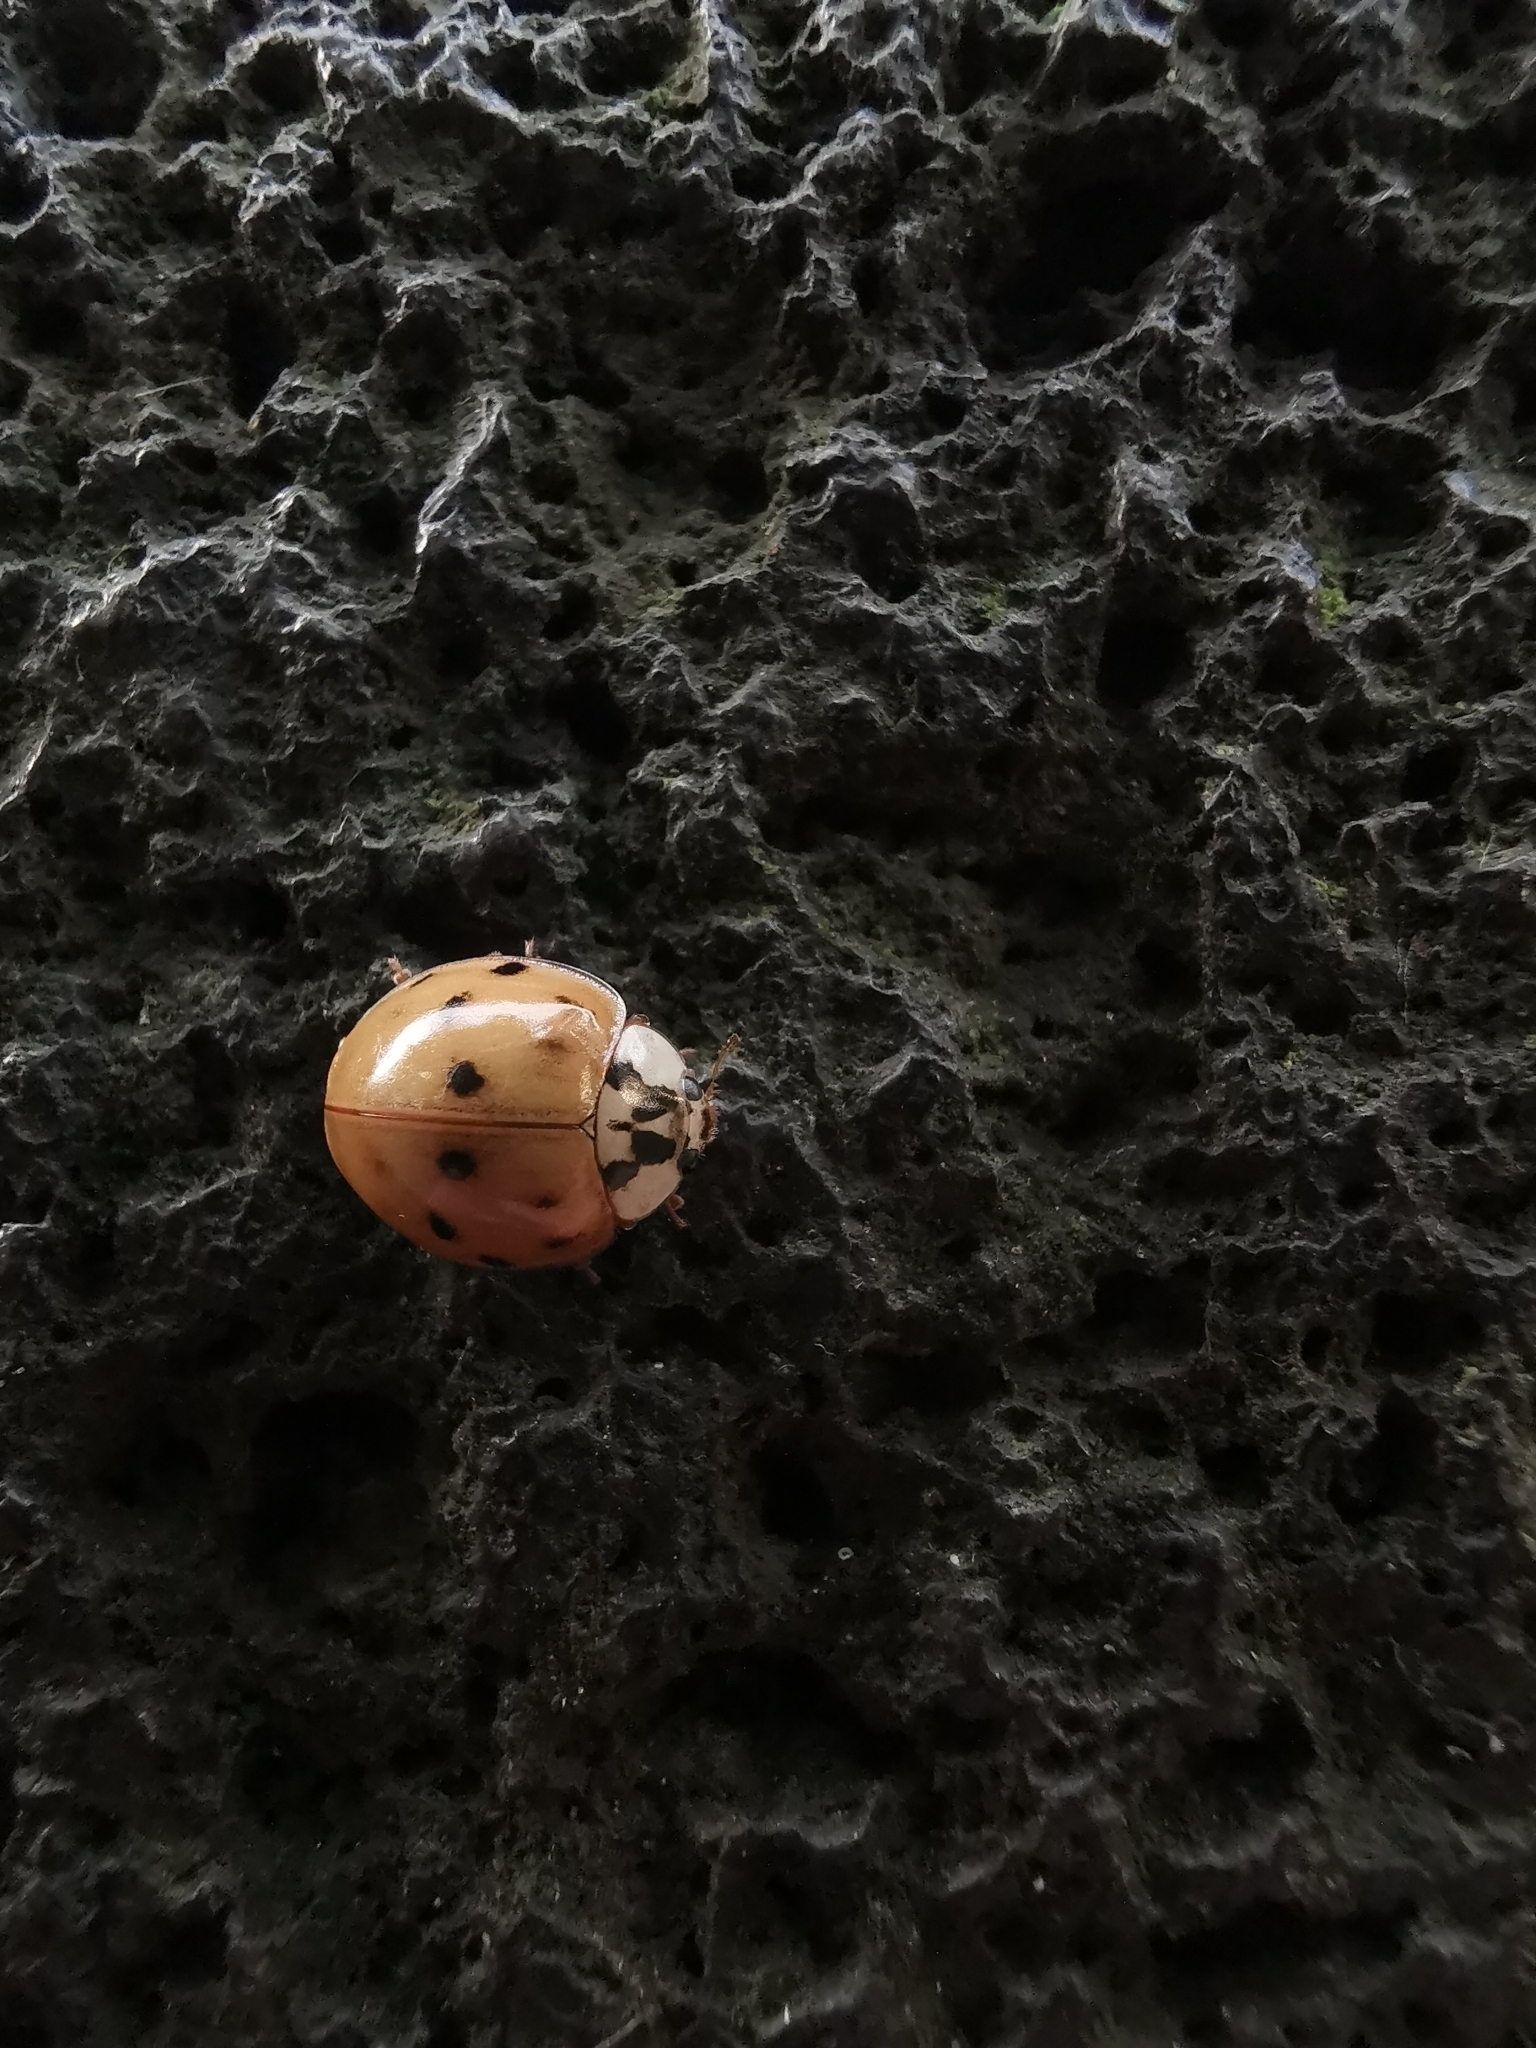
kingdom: Animalia
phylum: Arthropoda
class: Insecta
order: Coleoptera
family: Coccinellidae
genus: Harmonia
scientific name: Harmonia axyridis
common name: Harlequin ladybird
